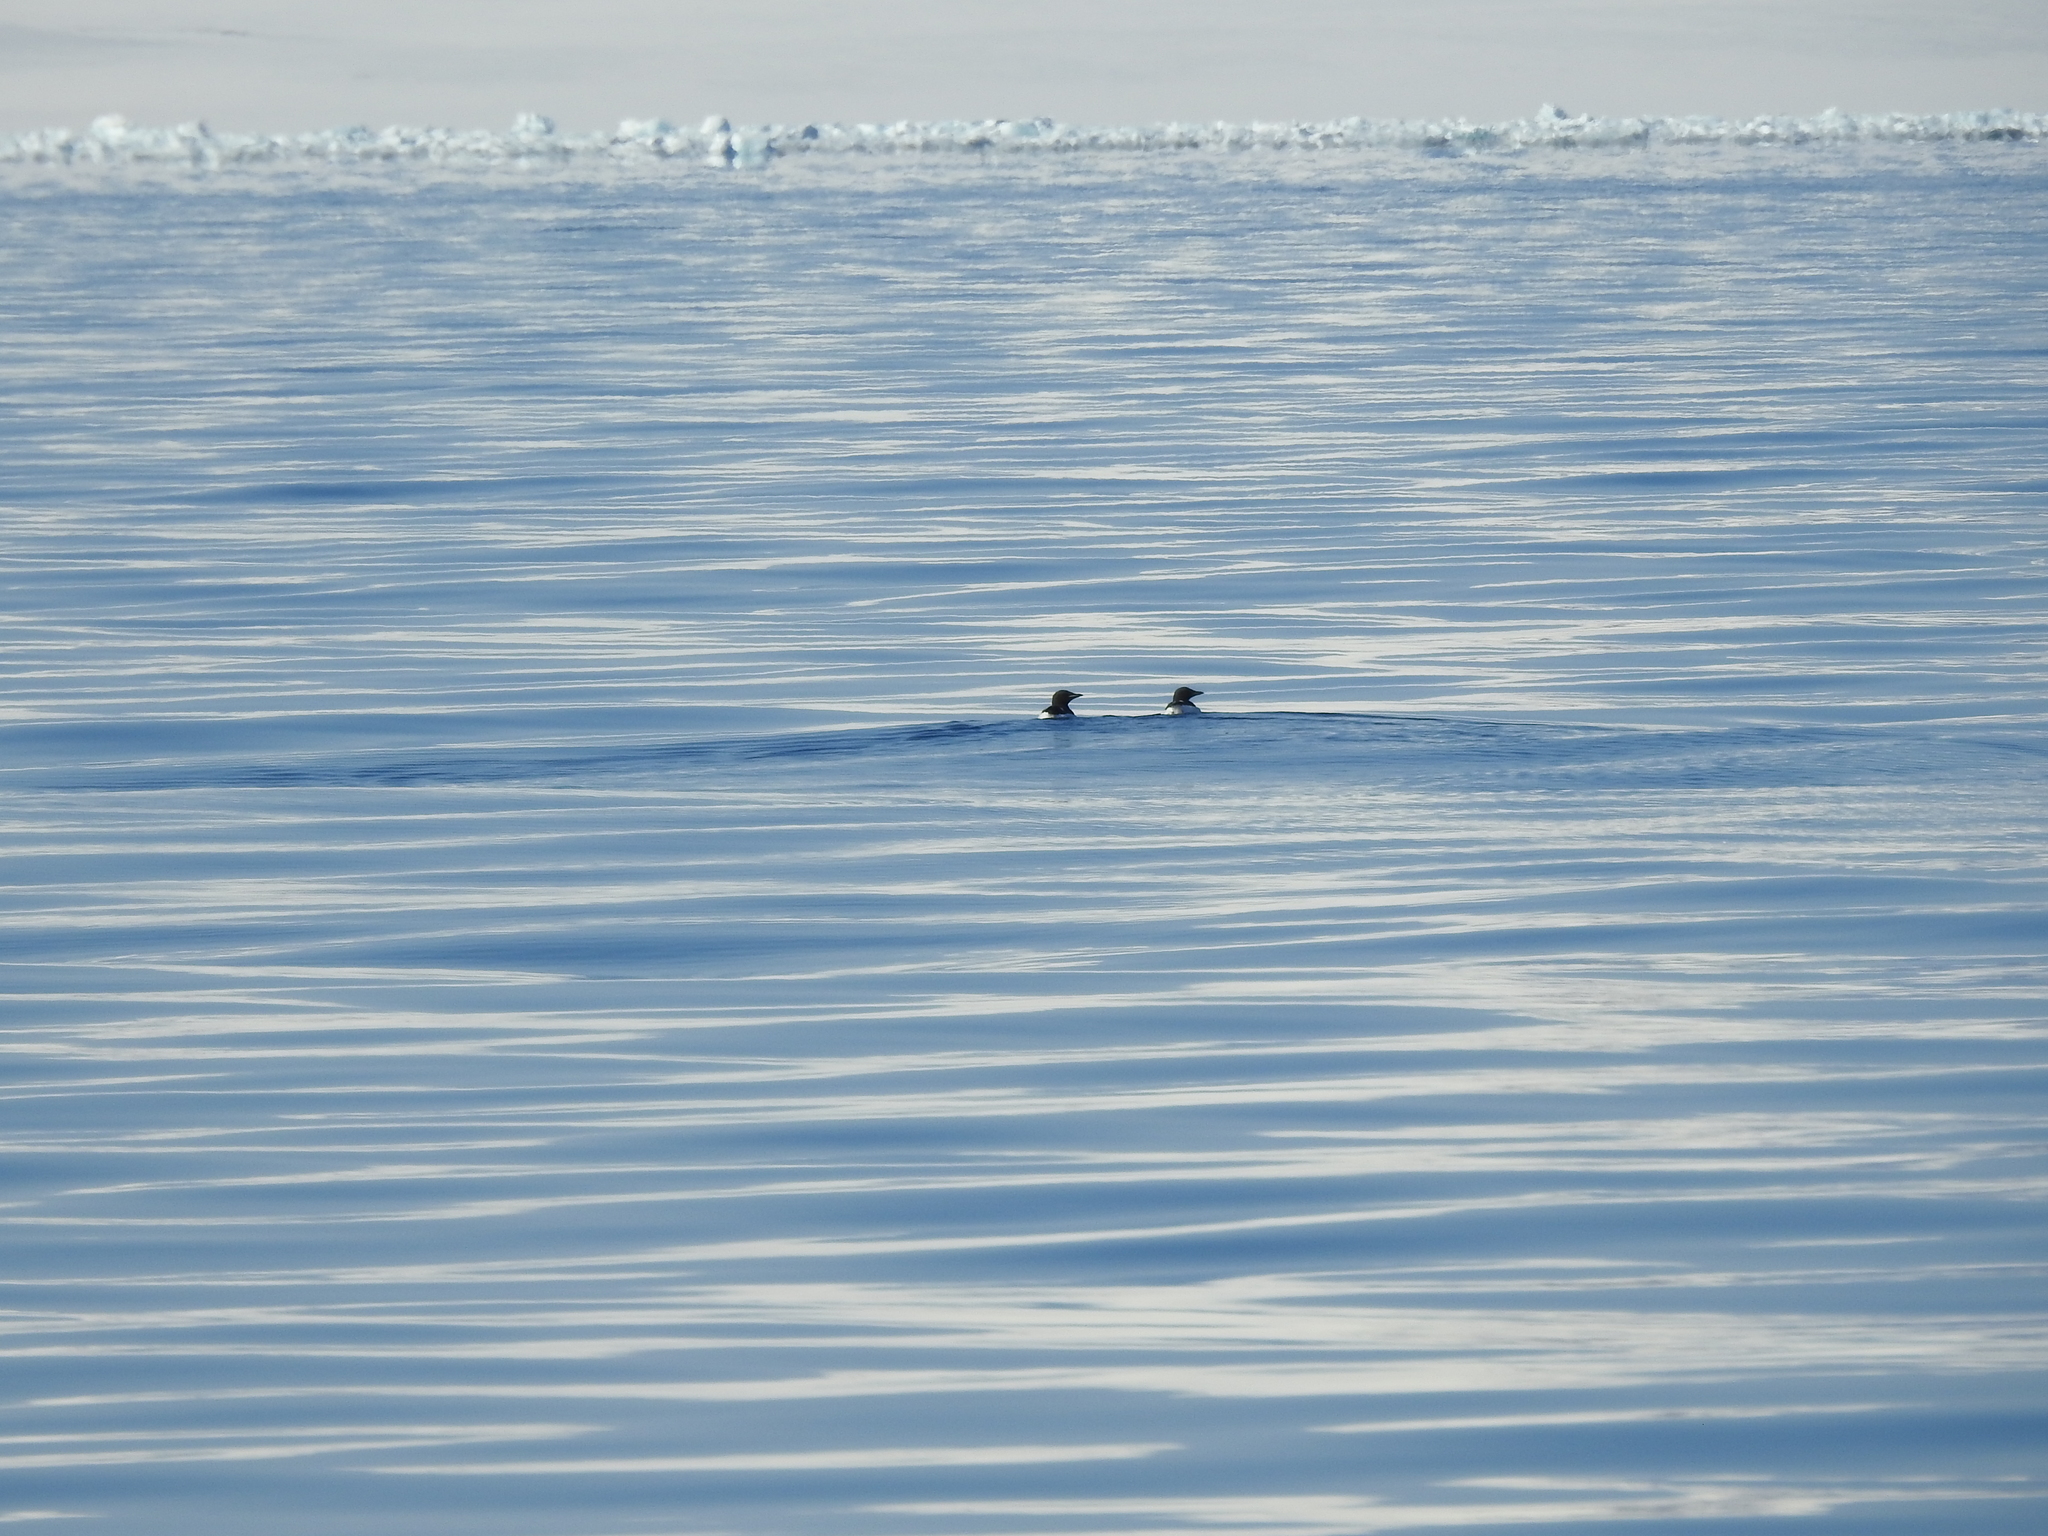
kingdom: Animalia
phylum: Chordata
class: Aves
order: Charadriiformes
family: Alcidae
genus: Uria
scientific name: Uria lomvia
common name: Thick-billed murre
